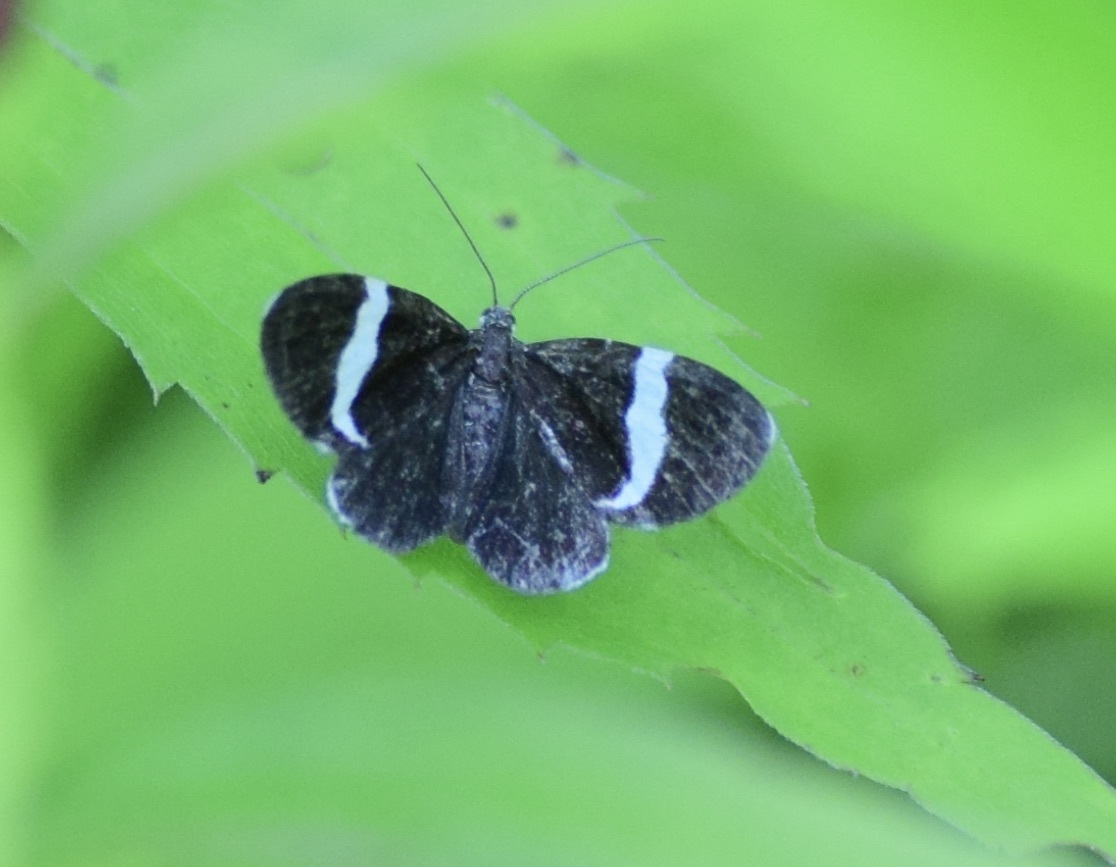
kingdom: Animalia
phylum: Arthropoda
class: Insecta
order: Lepidoptera
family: Geometridae
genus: Trichodezia
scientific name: Trichodezia albovittata
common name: White striped black
